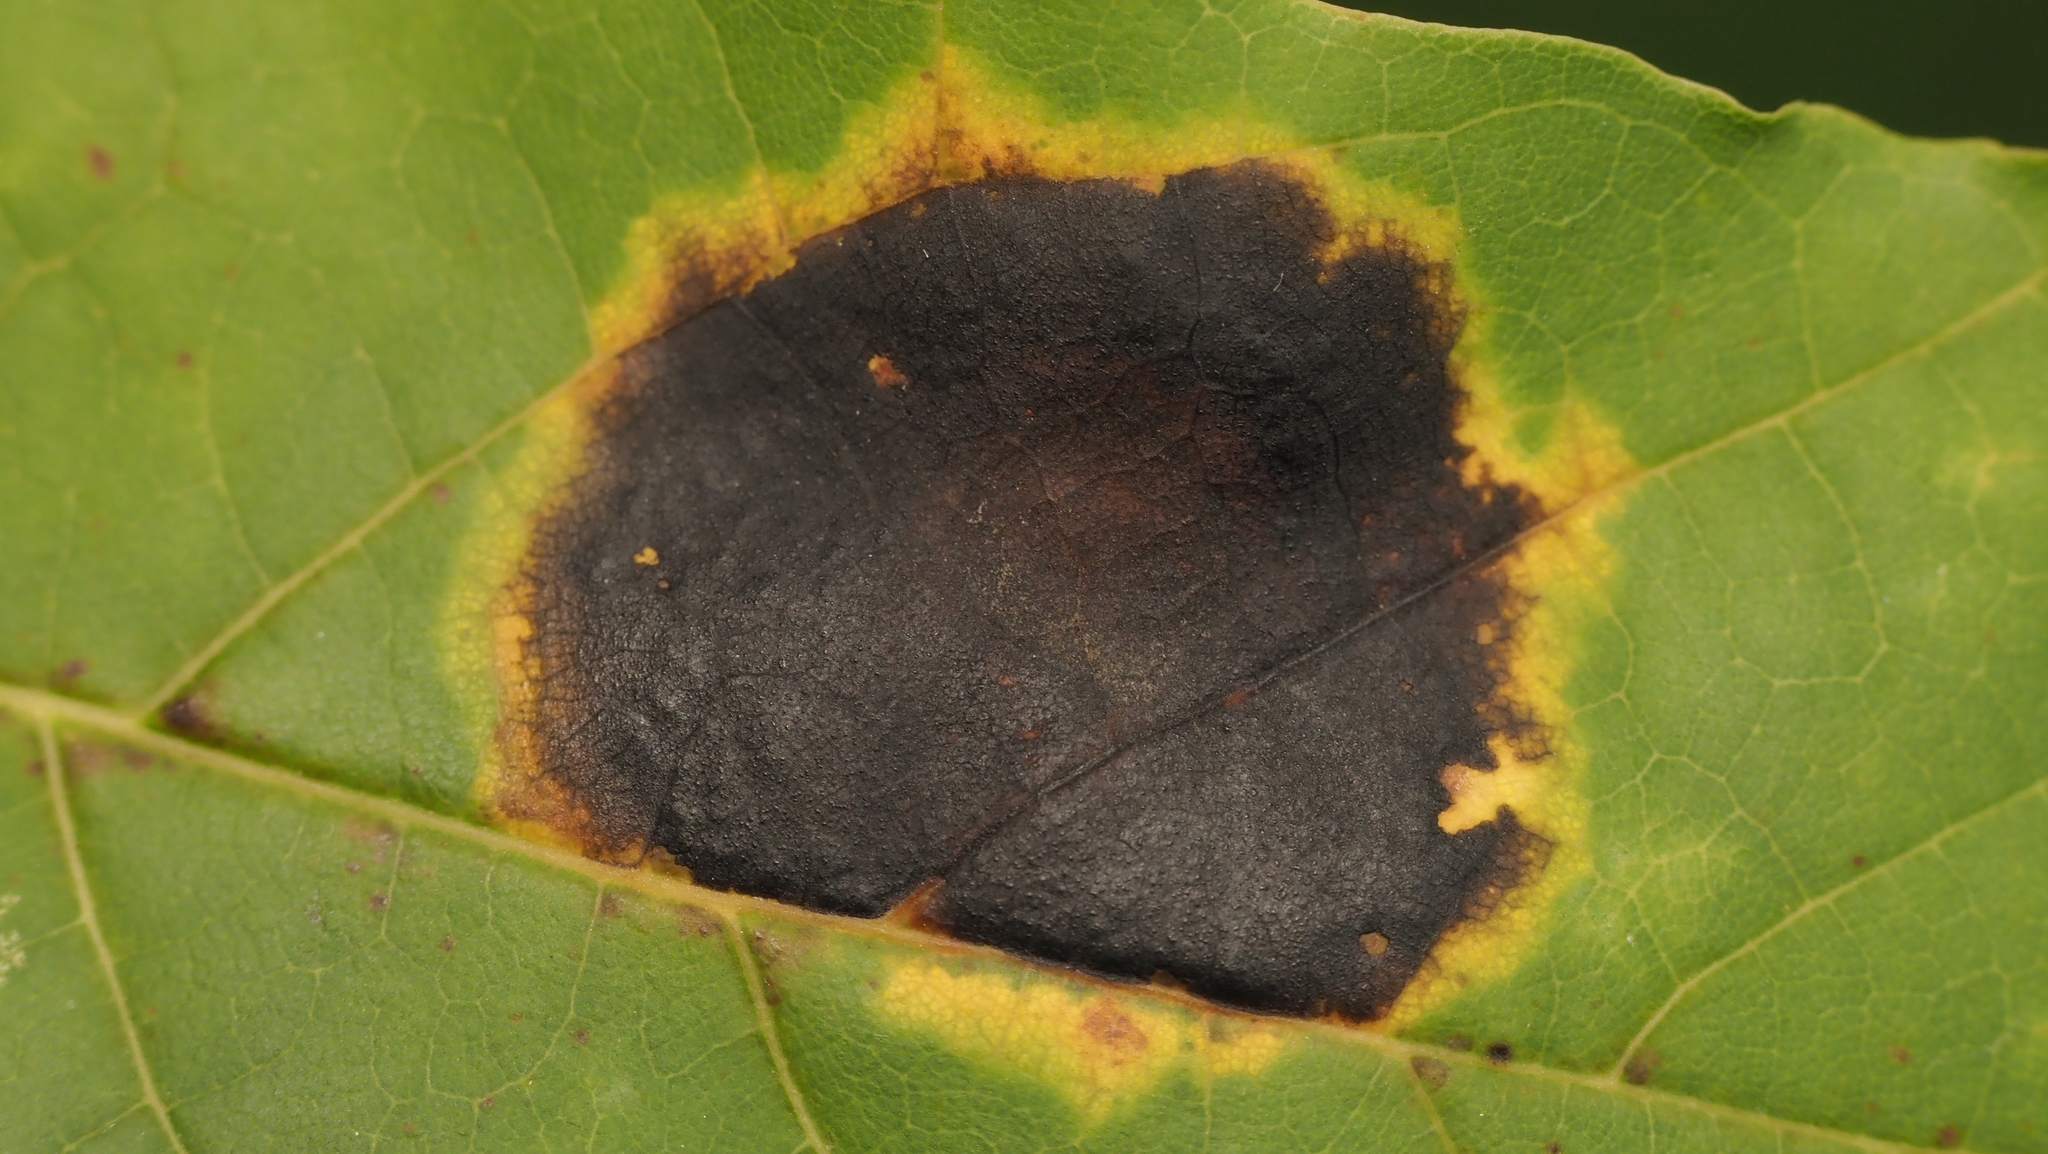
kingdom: Fungi
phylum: Ascomycota
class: Leotiomycetes
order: Rhytismatales
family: Rhytismataceae
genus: Rhytisma
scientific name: Rhytisma acerinum
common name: European tar spot
